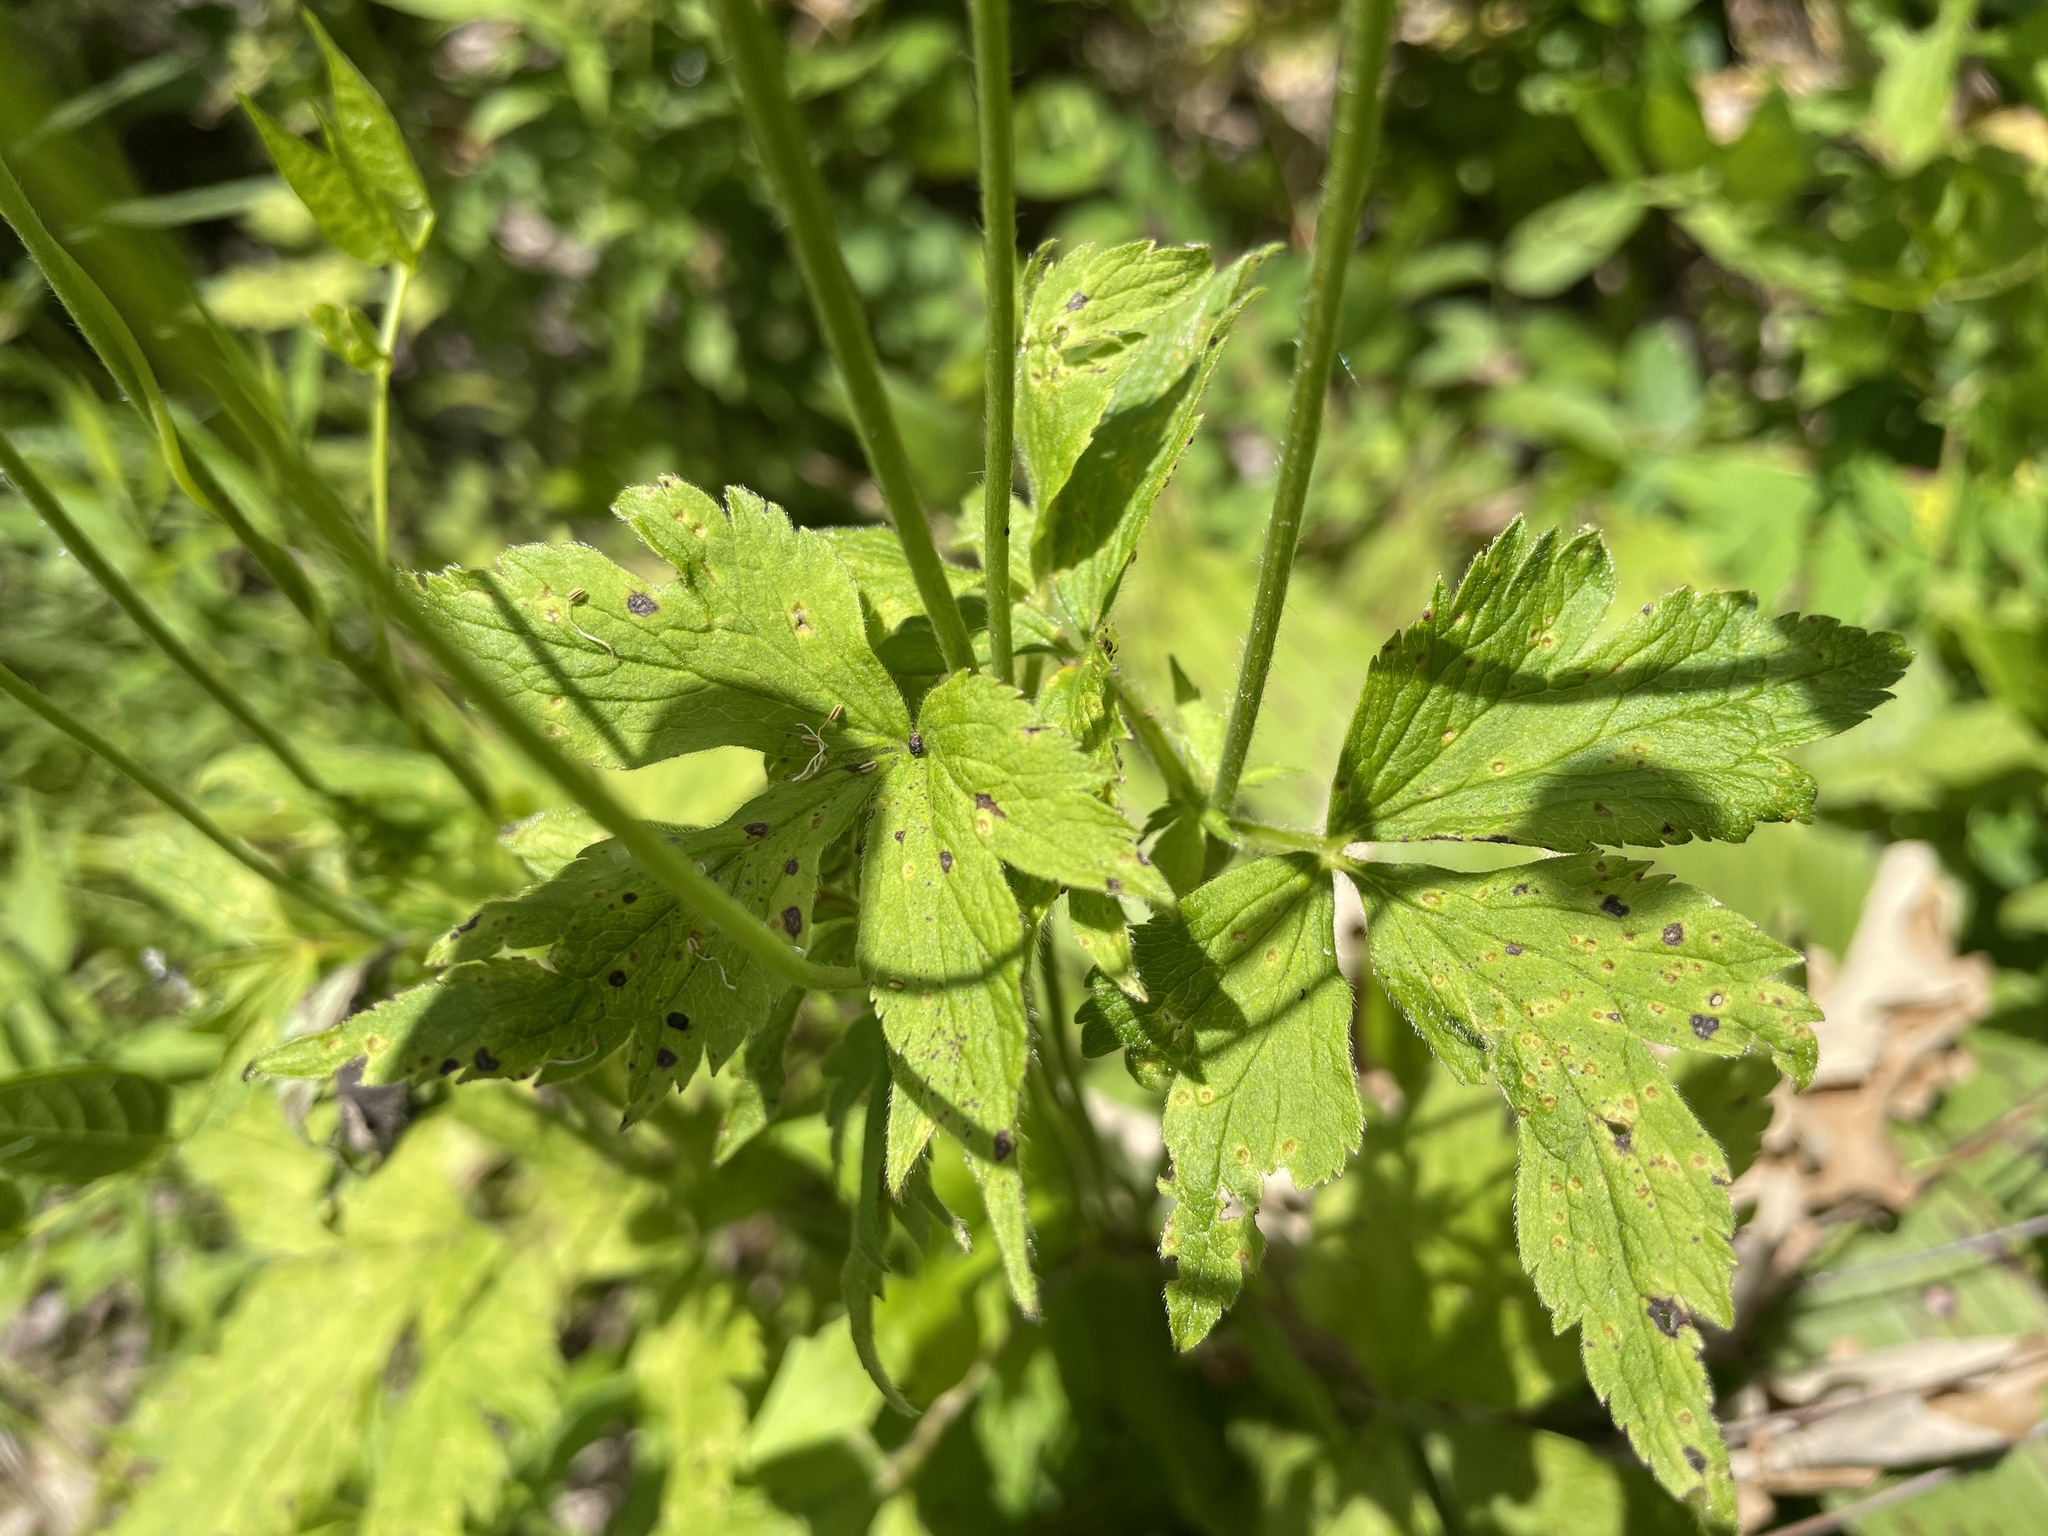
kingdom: Plantae
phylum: Tracheophyta
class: Magnoliopsida
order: Ranunculales
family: Ranunculaceae
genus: Anemone
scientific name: Anemone virginiana
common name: Tall anemone
